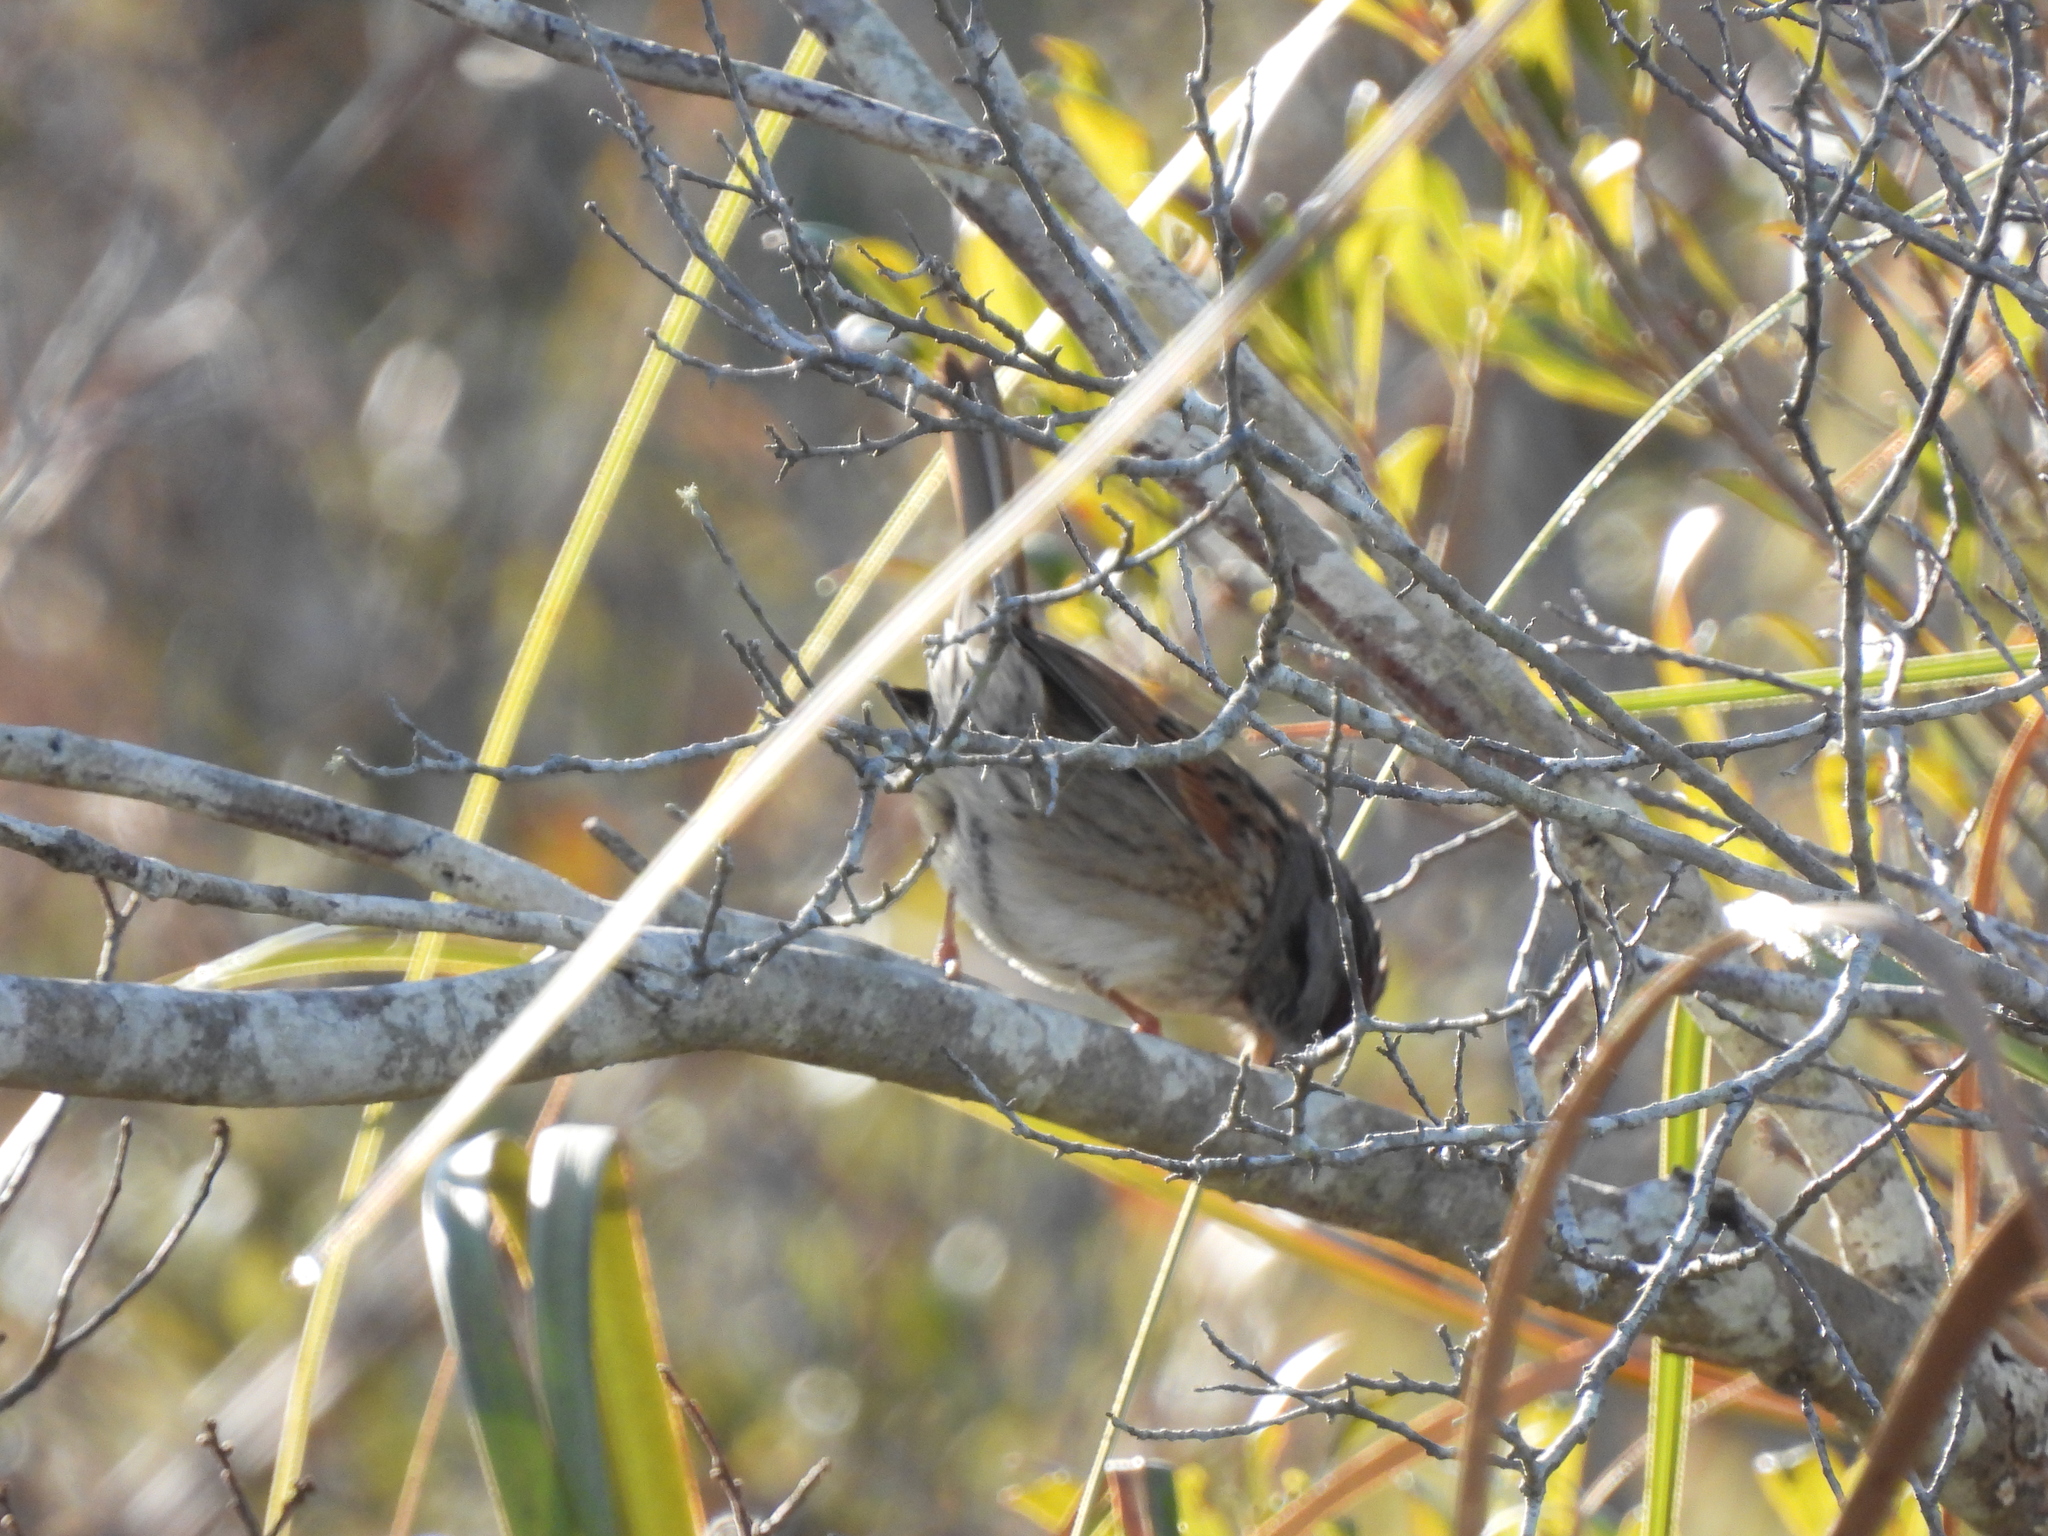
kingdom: Animalia
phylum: Chordata
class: Aves
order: Passeriformes
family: Passerellidae
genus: Melospiza
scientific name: Melospiza georgiana
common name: Swamp sparrow
